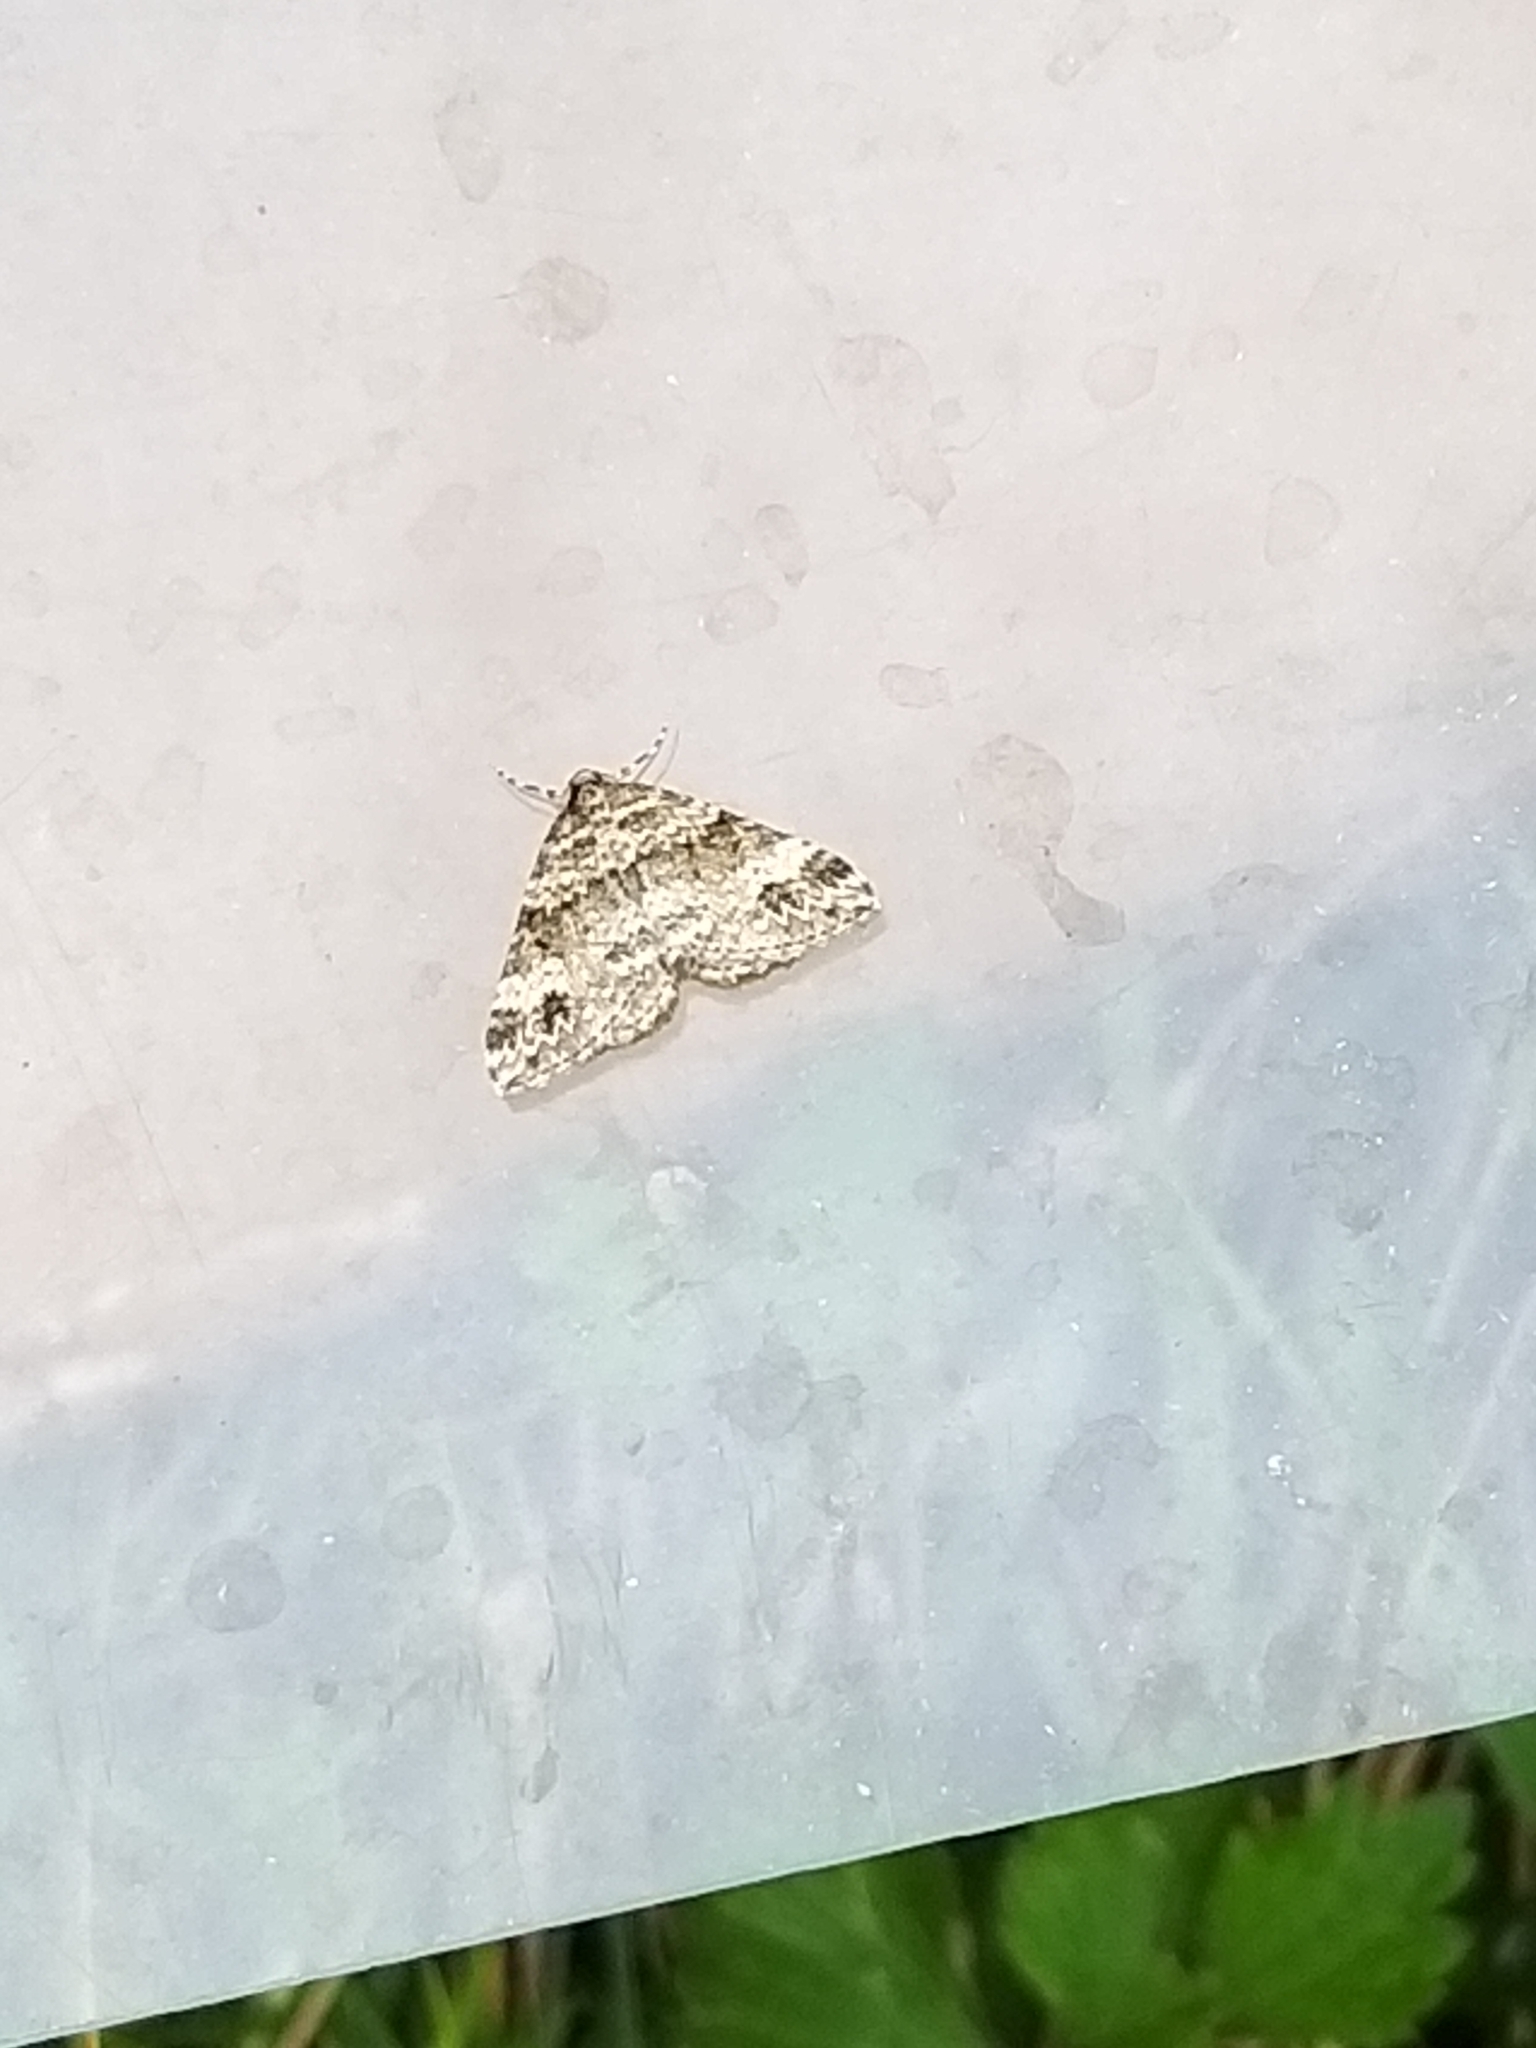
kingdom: Animalia
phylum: Arthropoda
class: Insecta
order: Lepidoptera
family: Geometridae
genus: Perizoma
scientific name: Perizoma didymata
